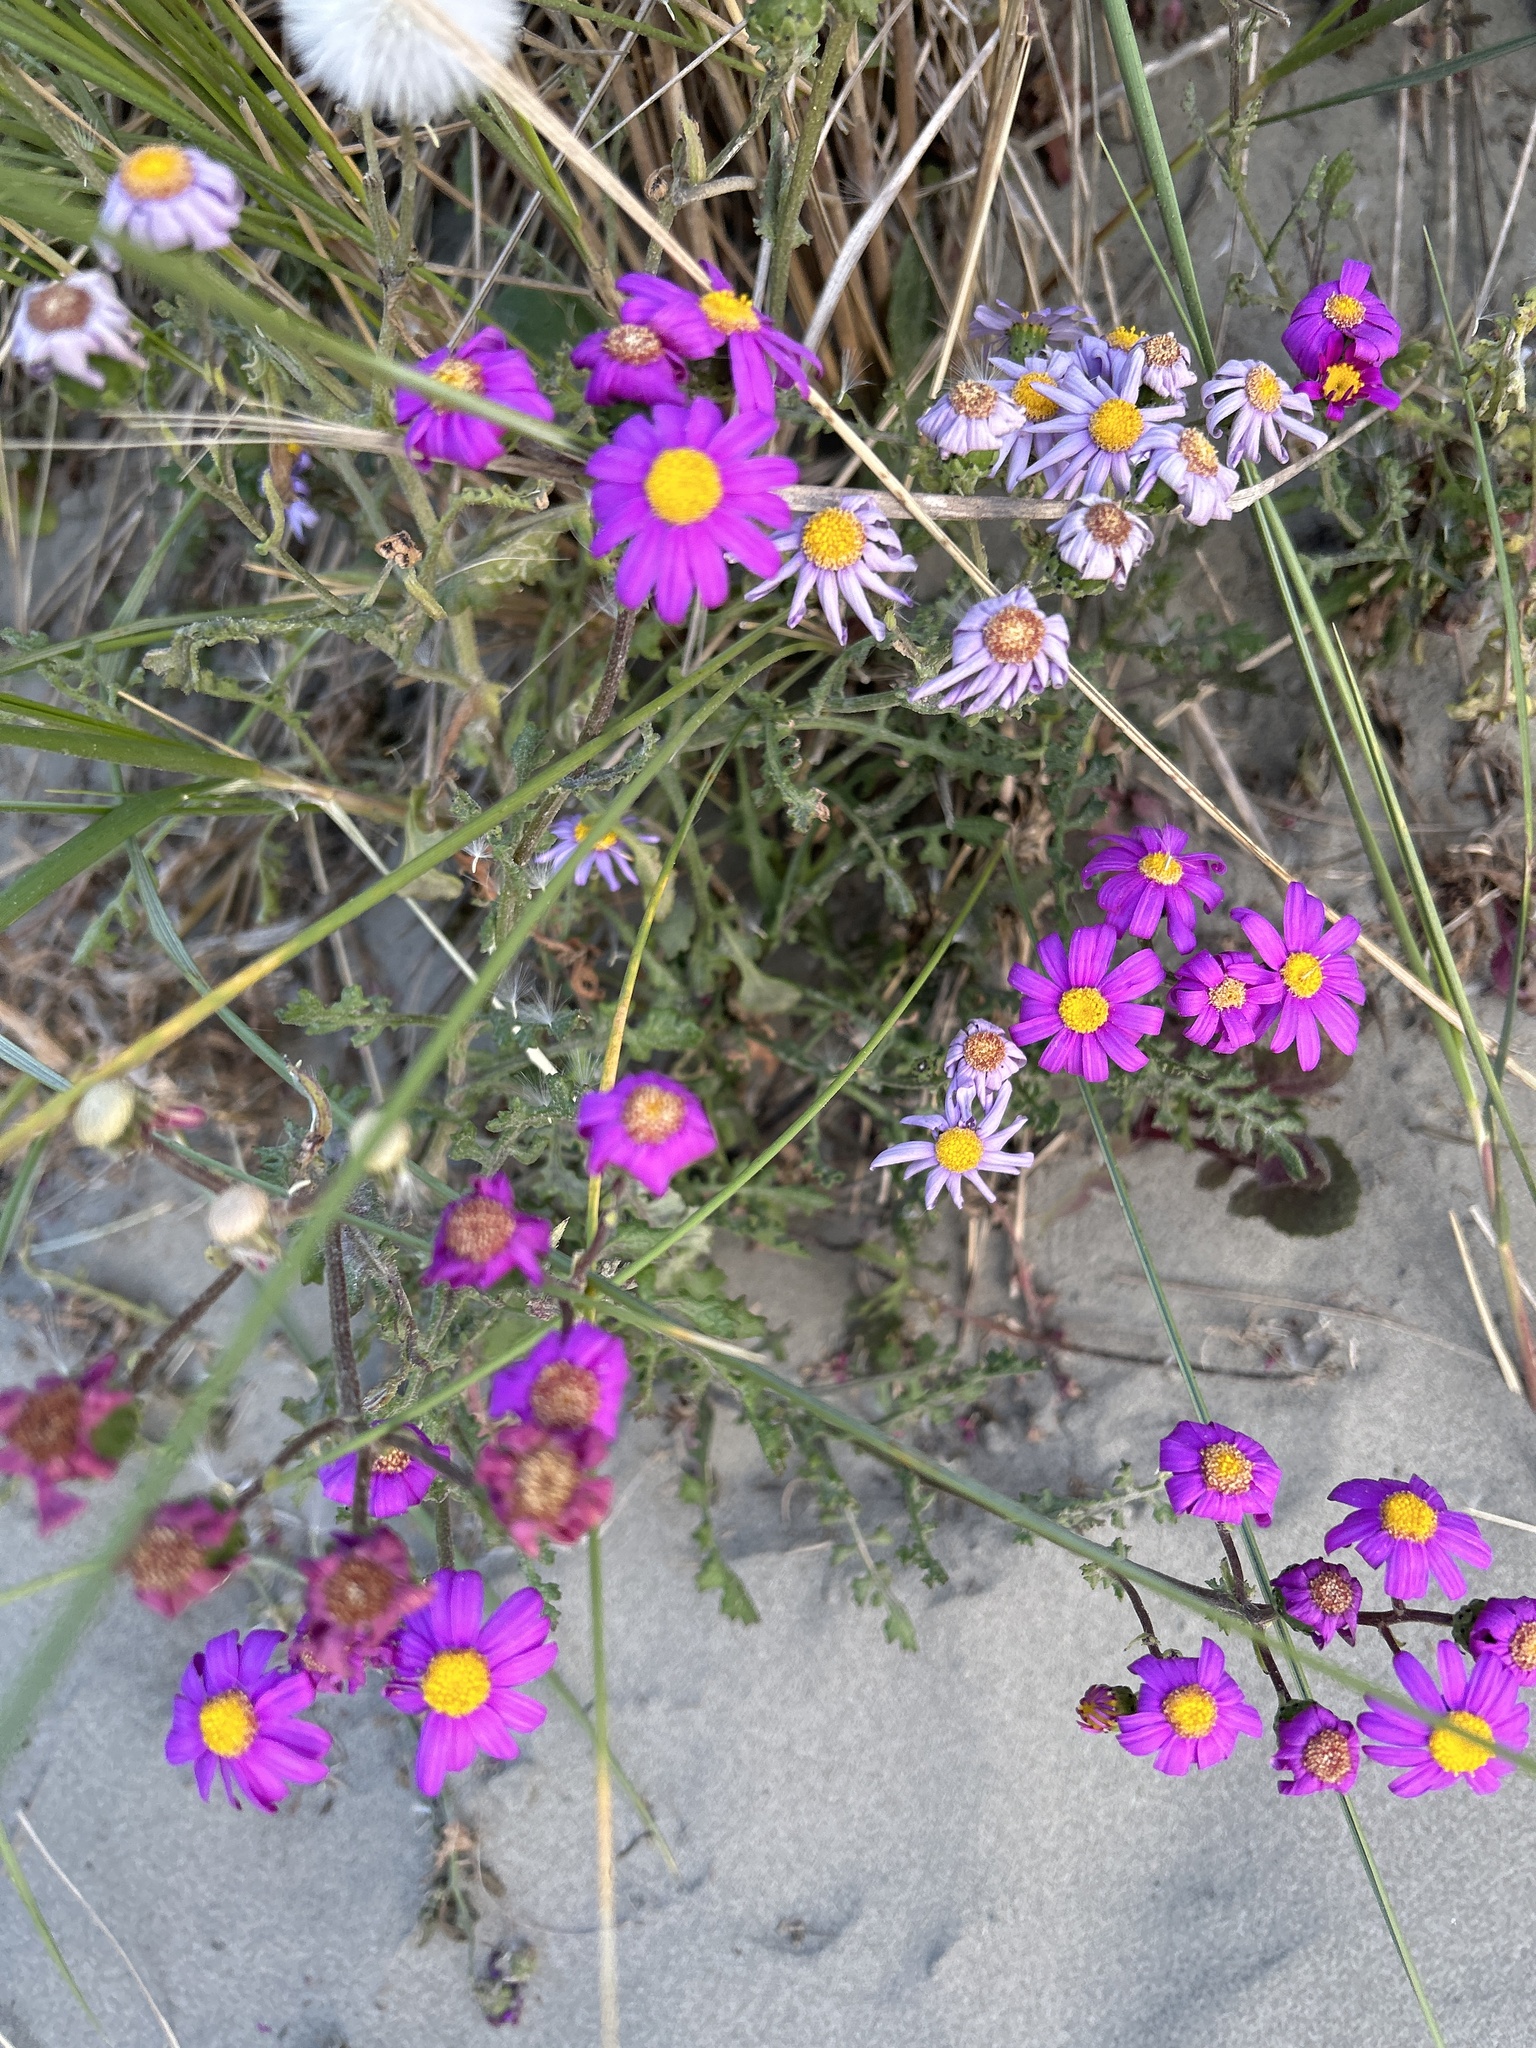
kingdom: Plantae
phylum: Tracheophyta
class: Magnoliopsida
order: Asterales
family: Asteraceae
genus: Senecio
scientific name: Senecio elegans
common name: Purple groundsel
